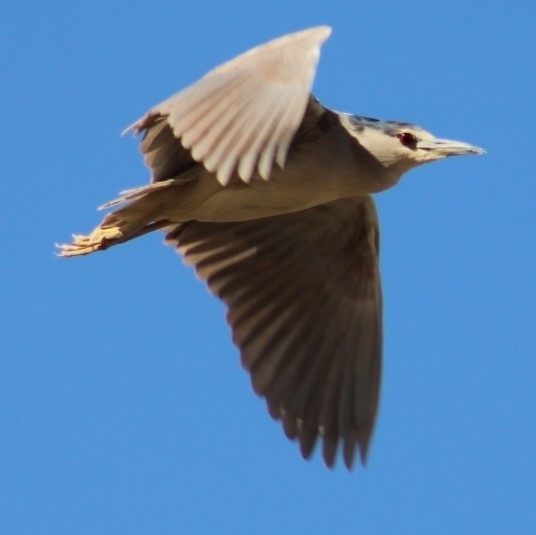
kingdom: Animalia
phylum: Chordata
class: Aves
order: Pelecaniformes
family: Ardeidae
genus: Nycticorax
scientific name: Nycticorax nycticorax
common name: Black-crowned night heron
